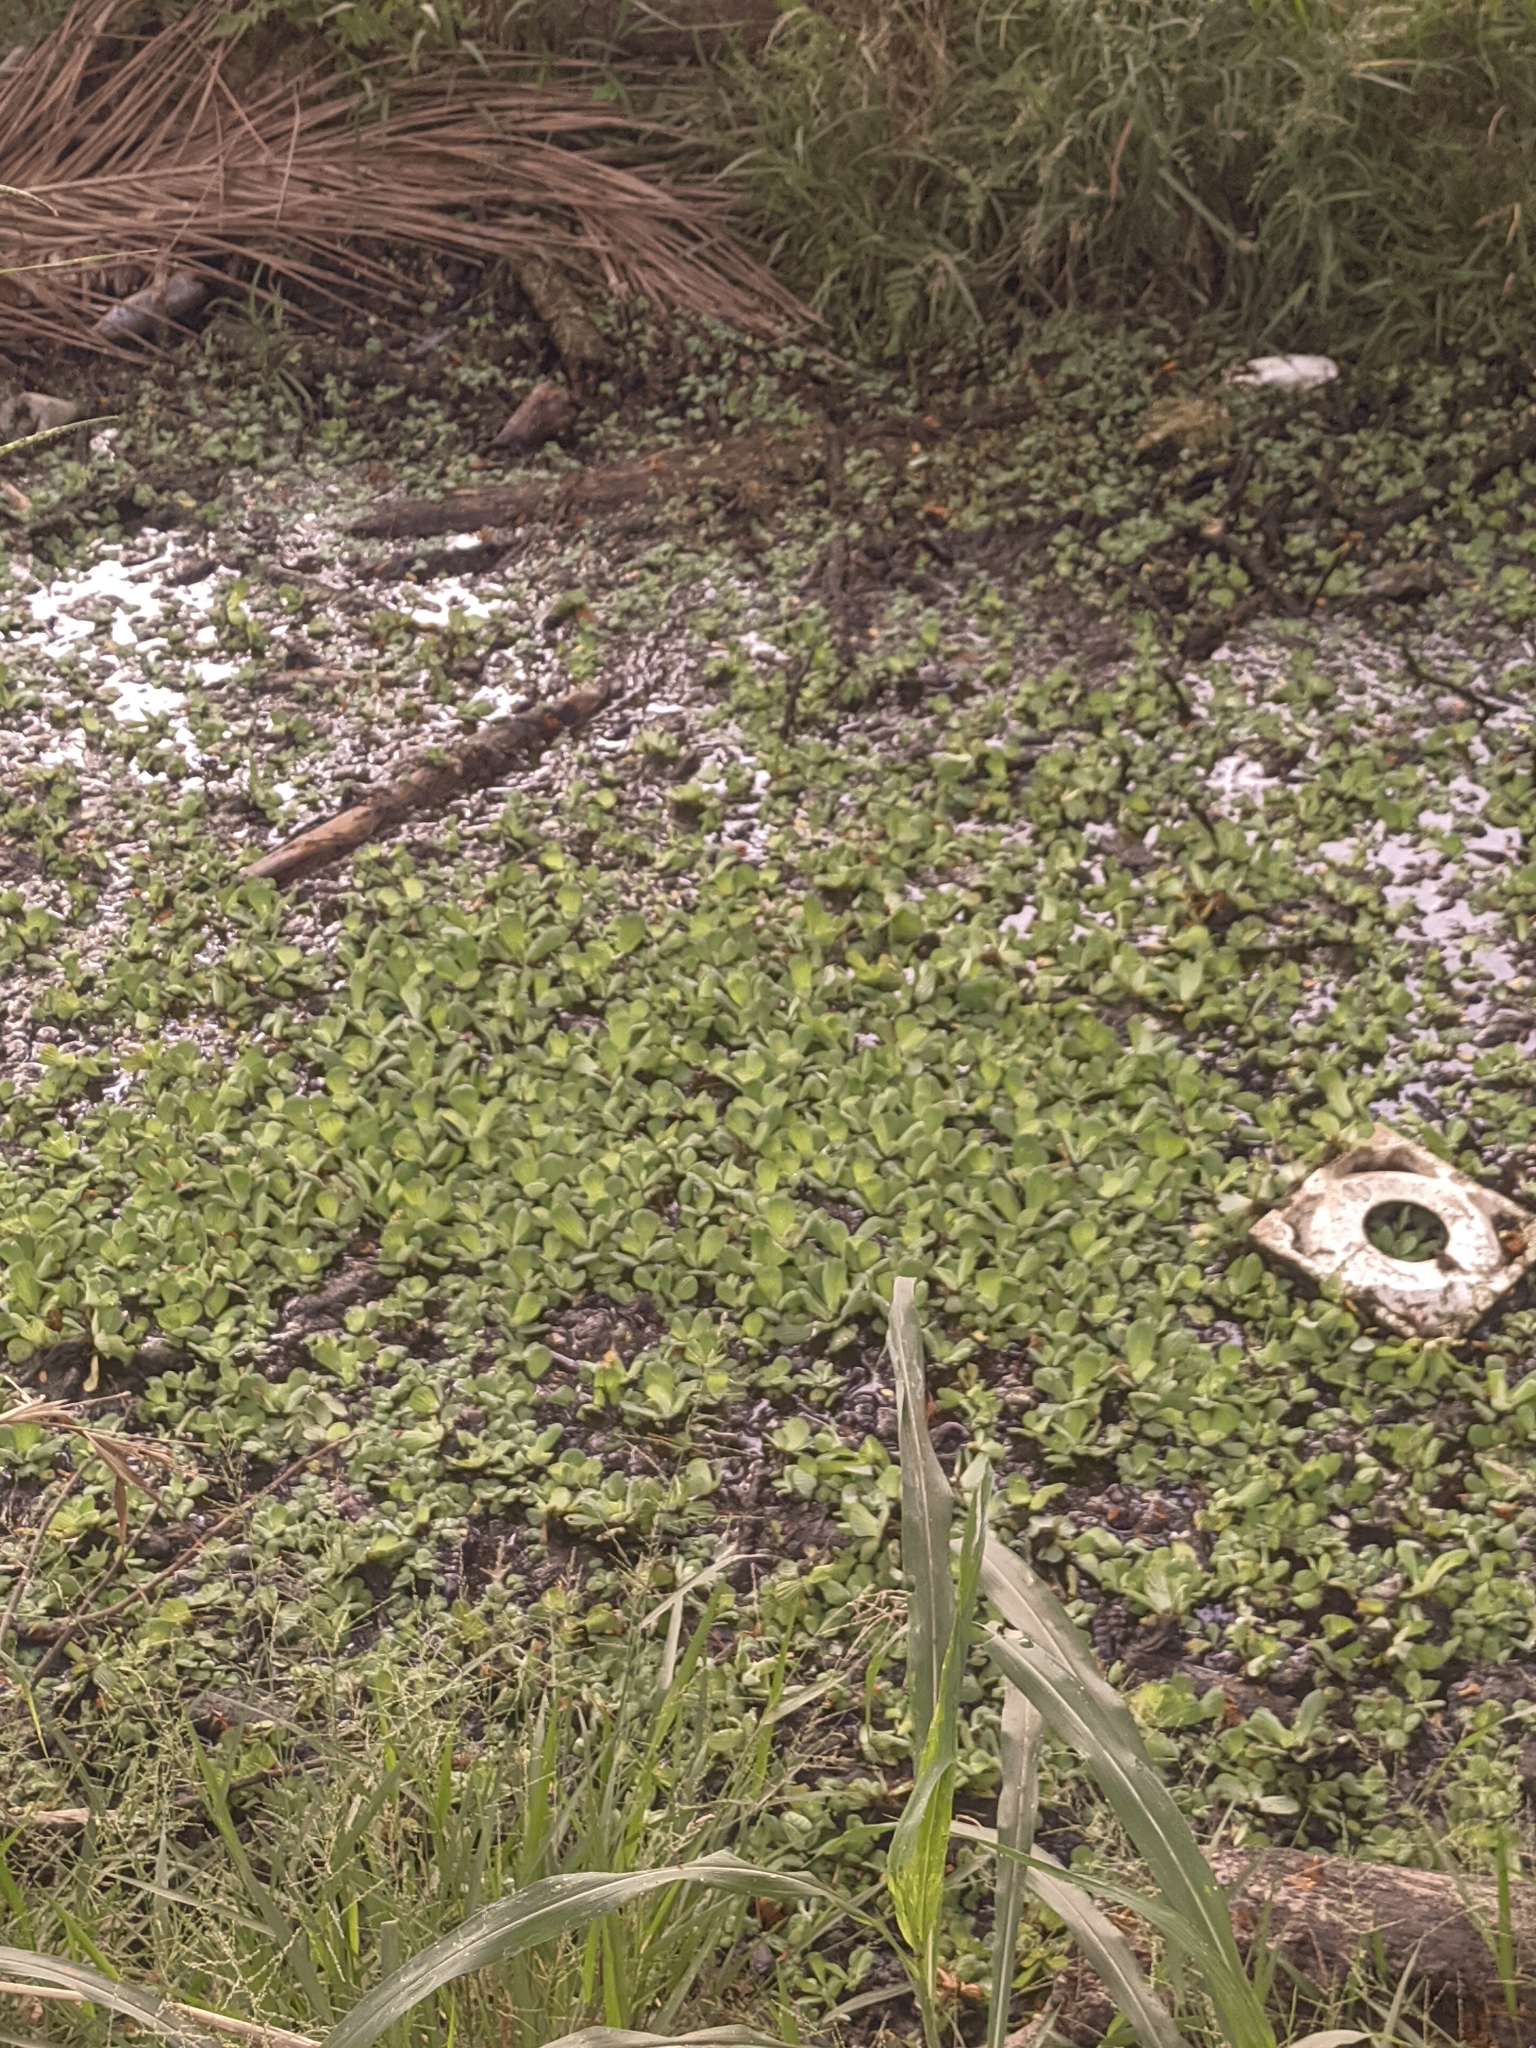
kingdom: Plantae
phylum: Tracheophyta
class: Liliopsida
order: Alismatales
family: Araceae
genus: Pistia
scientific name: Pistia stratiotes
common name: Water lettuce
